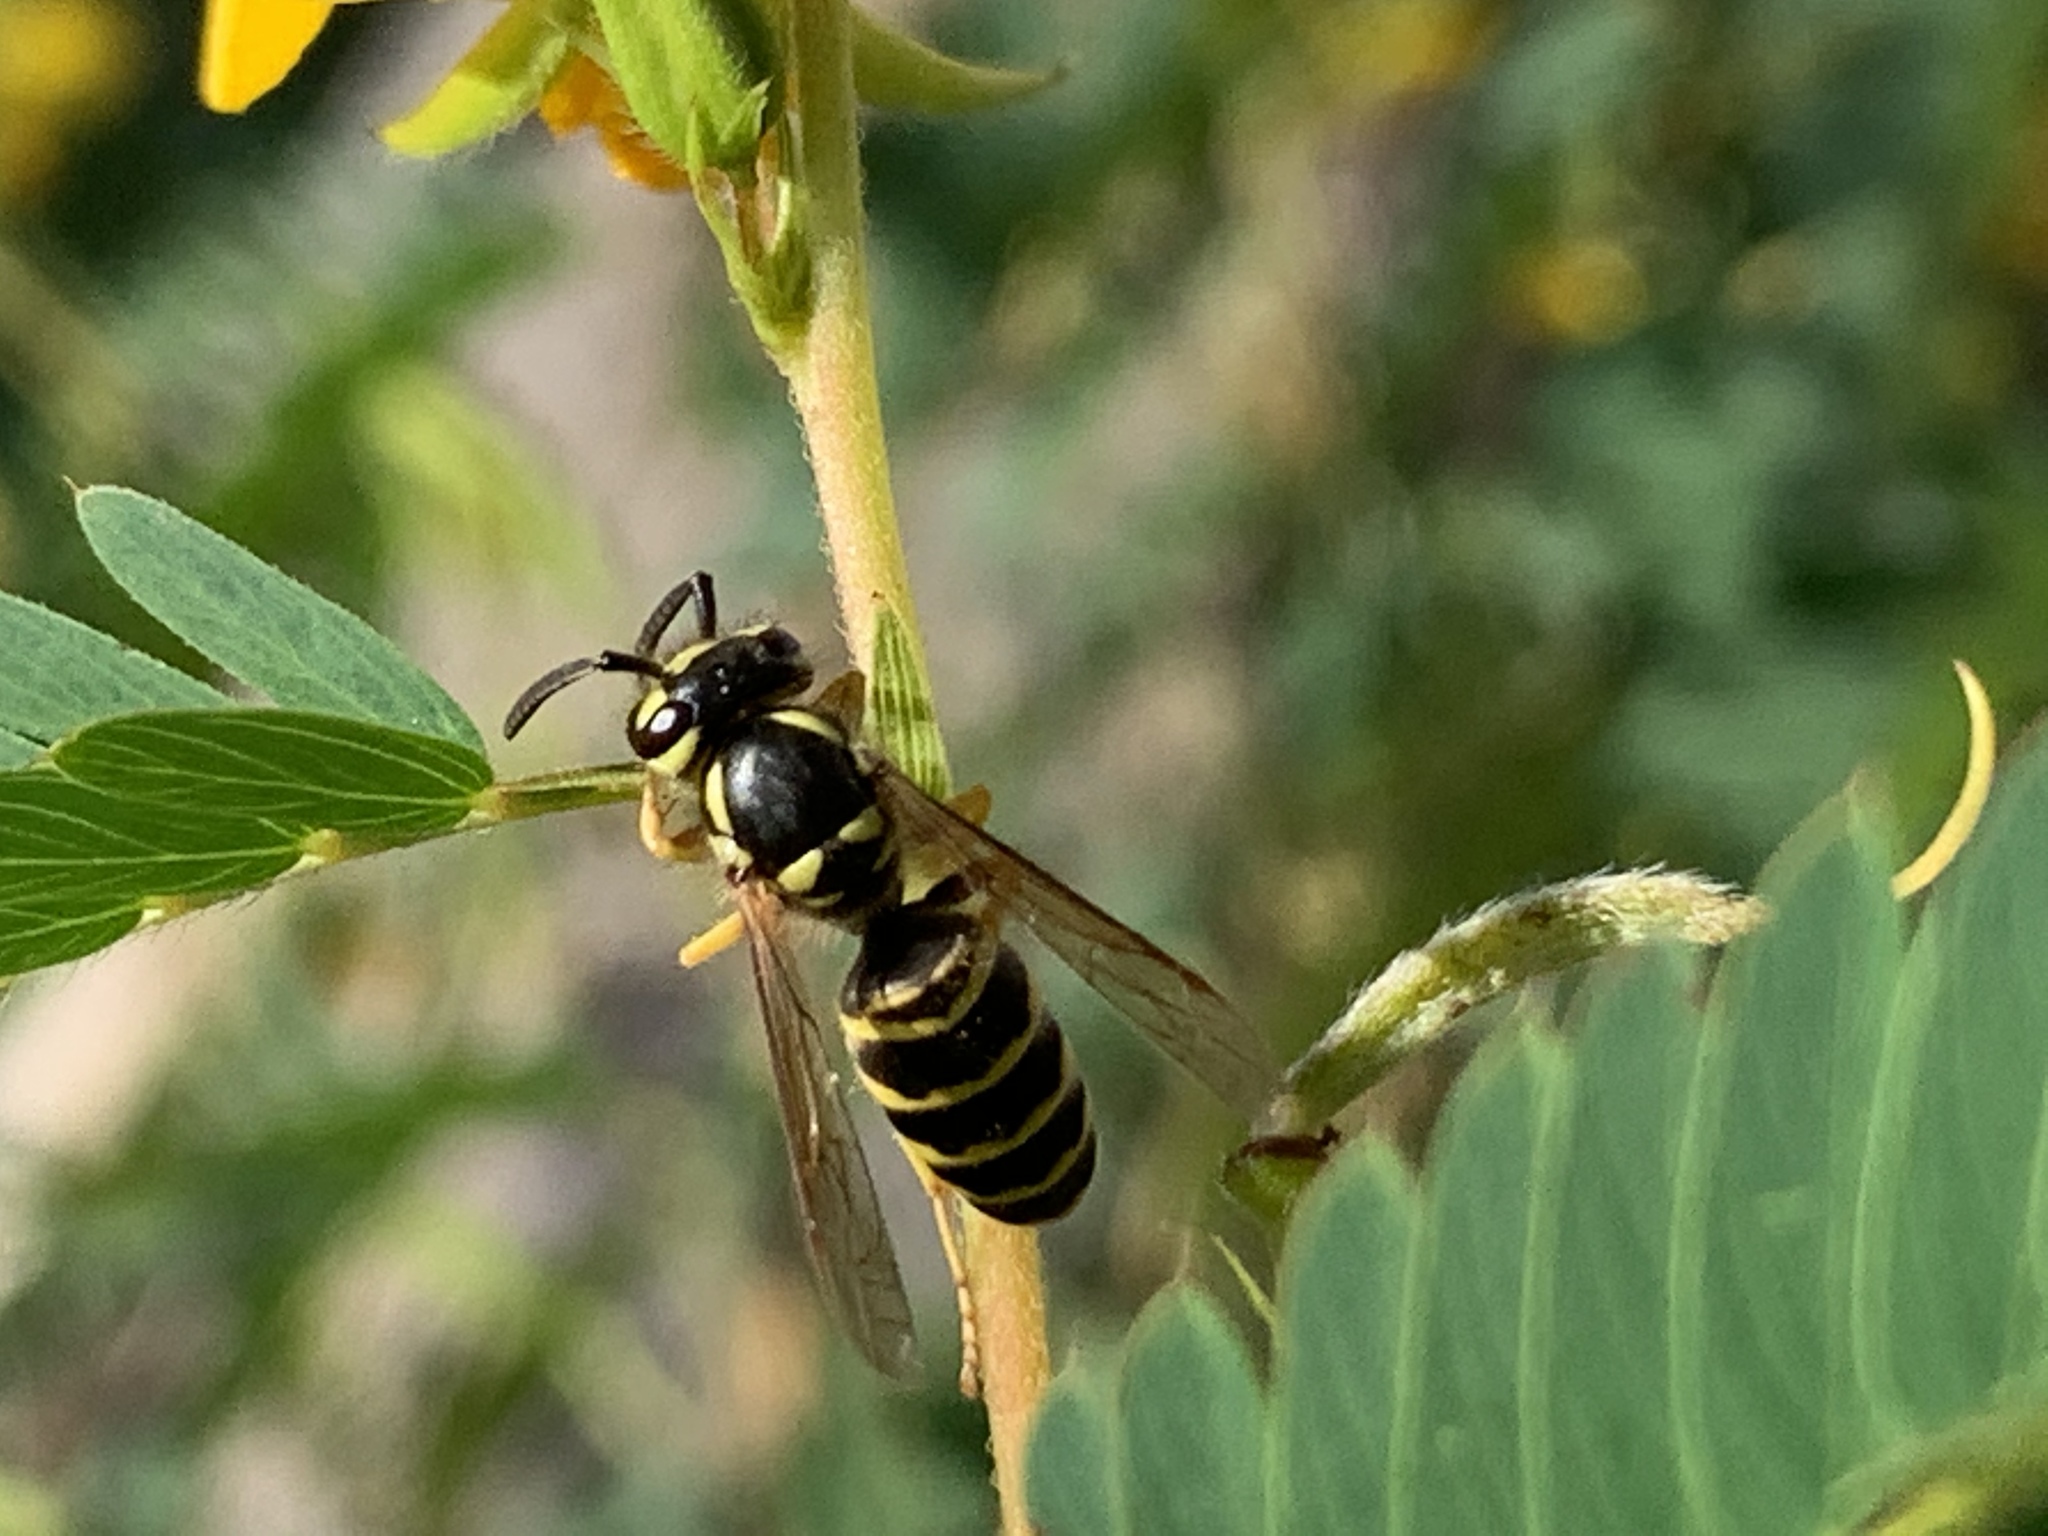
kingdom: Animalia
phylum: Arthropoda
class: Insecta
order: Hymenoptera
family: Vespidae
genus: Vespula
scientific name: Vespula maculifrons
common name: Eastern yellowjacket
